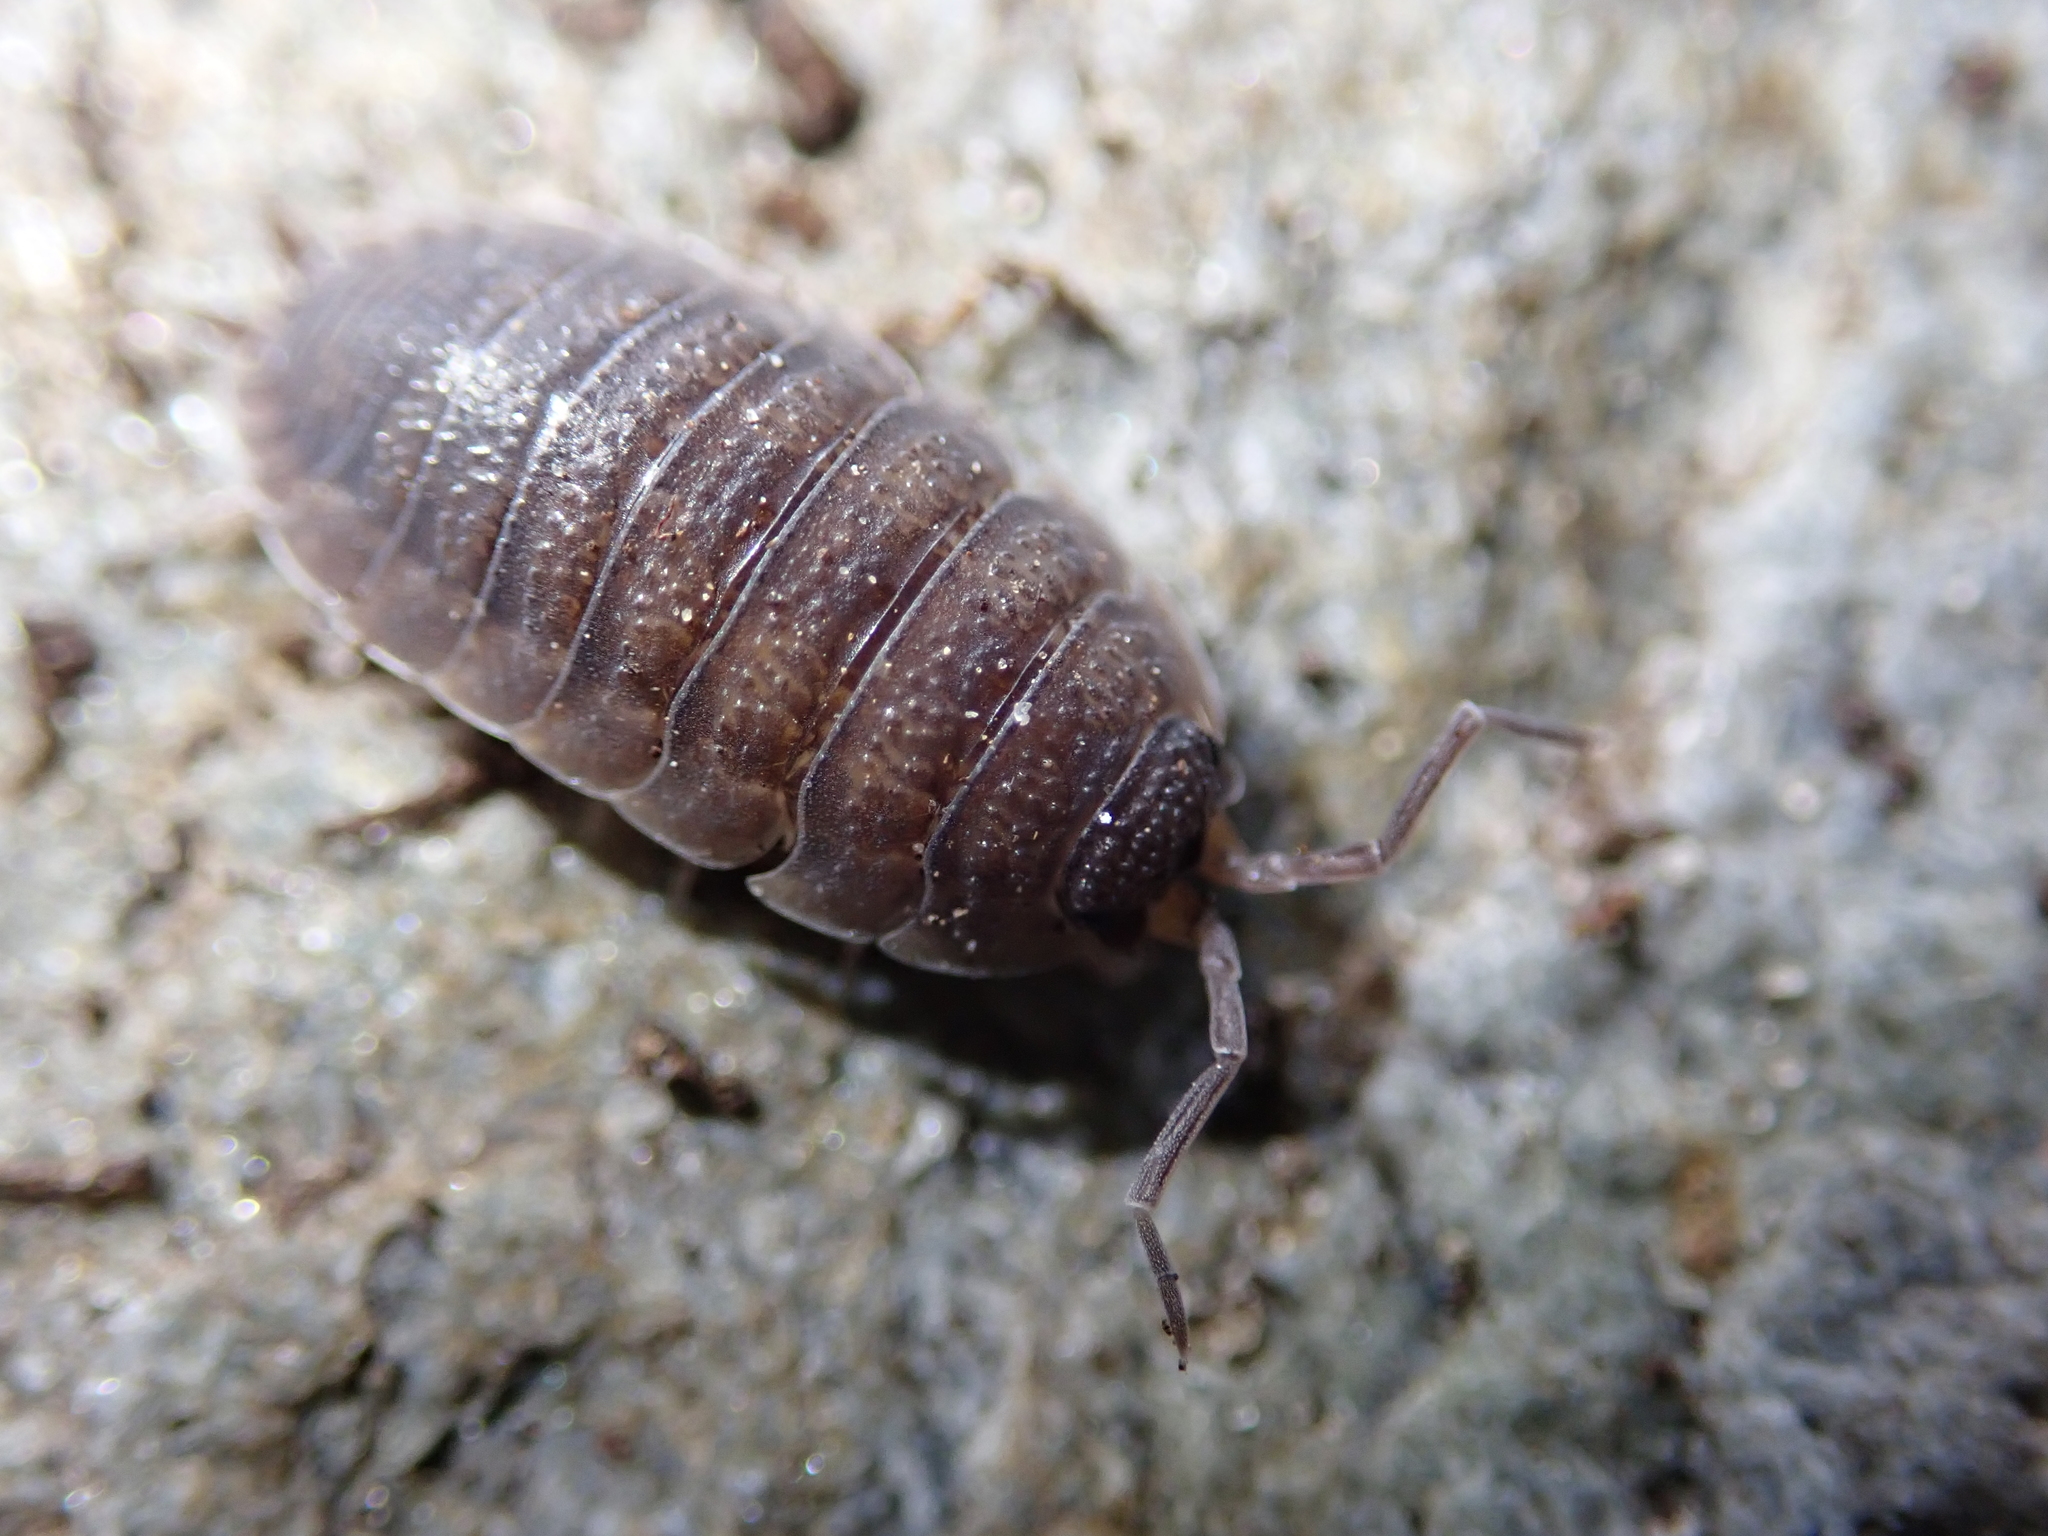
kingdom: Animalia
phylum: Arthropoda
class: Malacostraca
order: Isopoda
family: Porcellionidae
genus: Porcellio
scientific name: Porcellio scaber
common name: Common rough woodlouse
